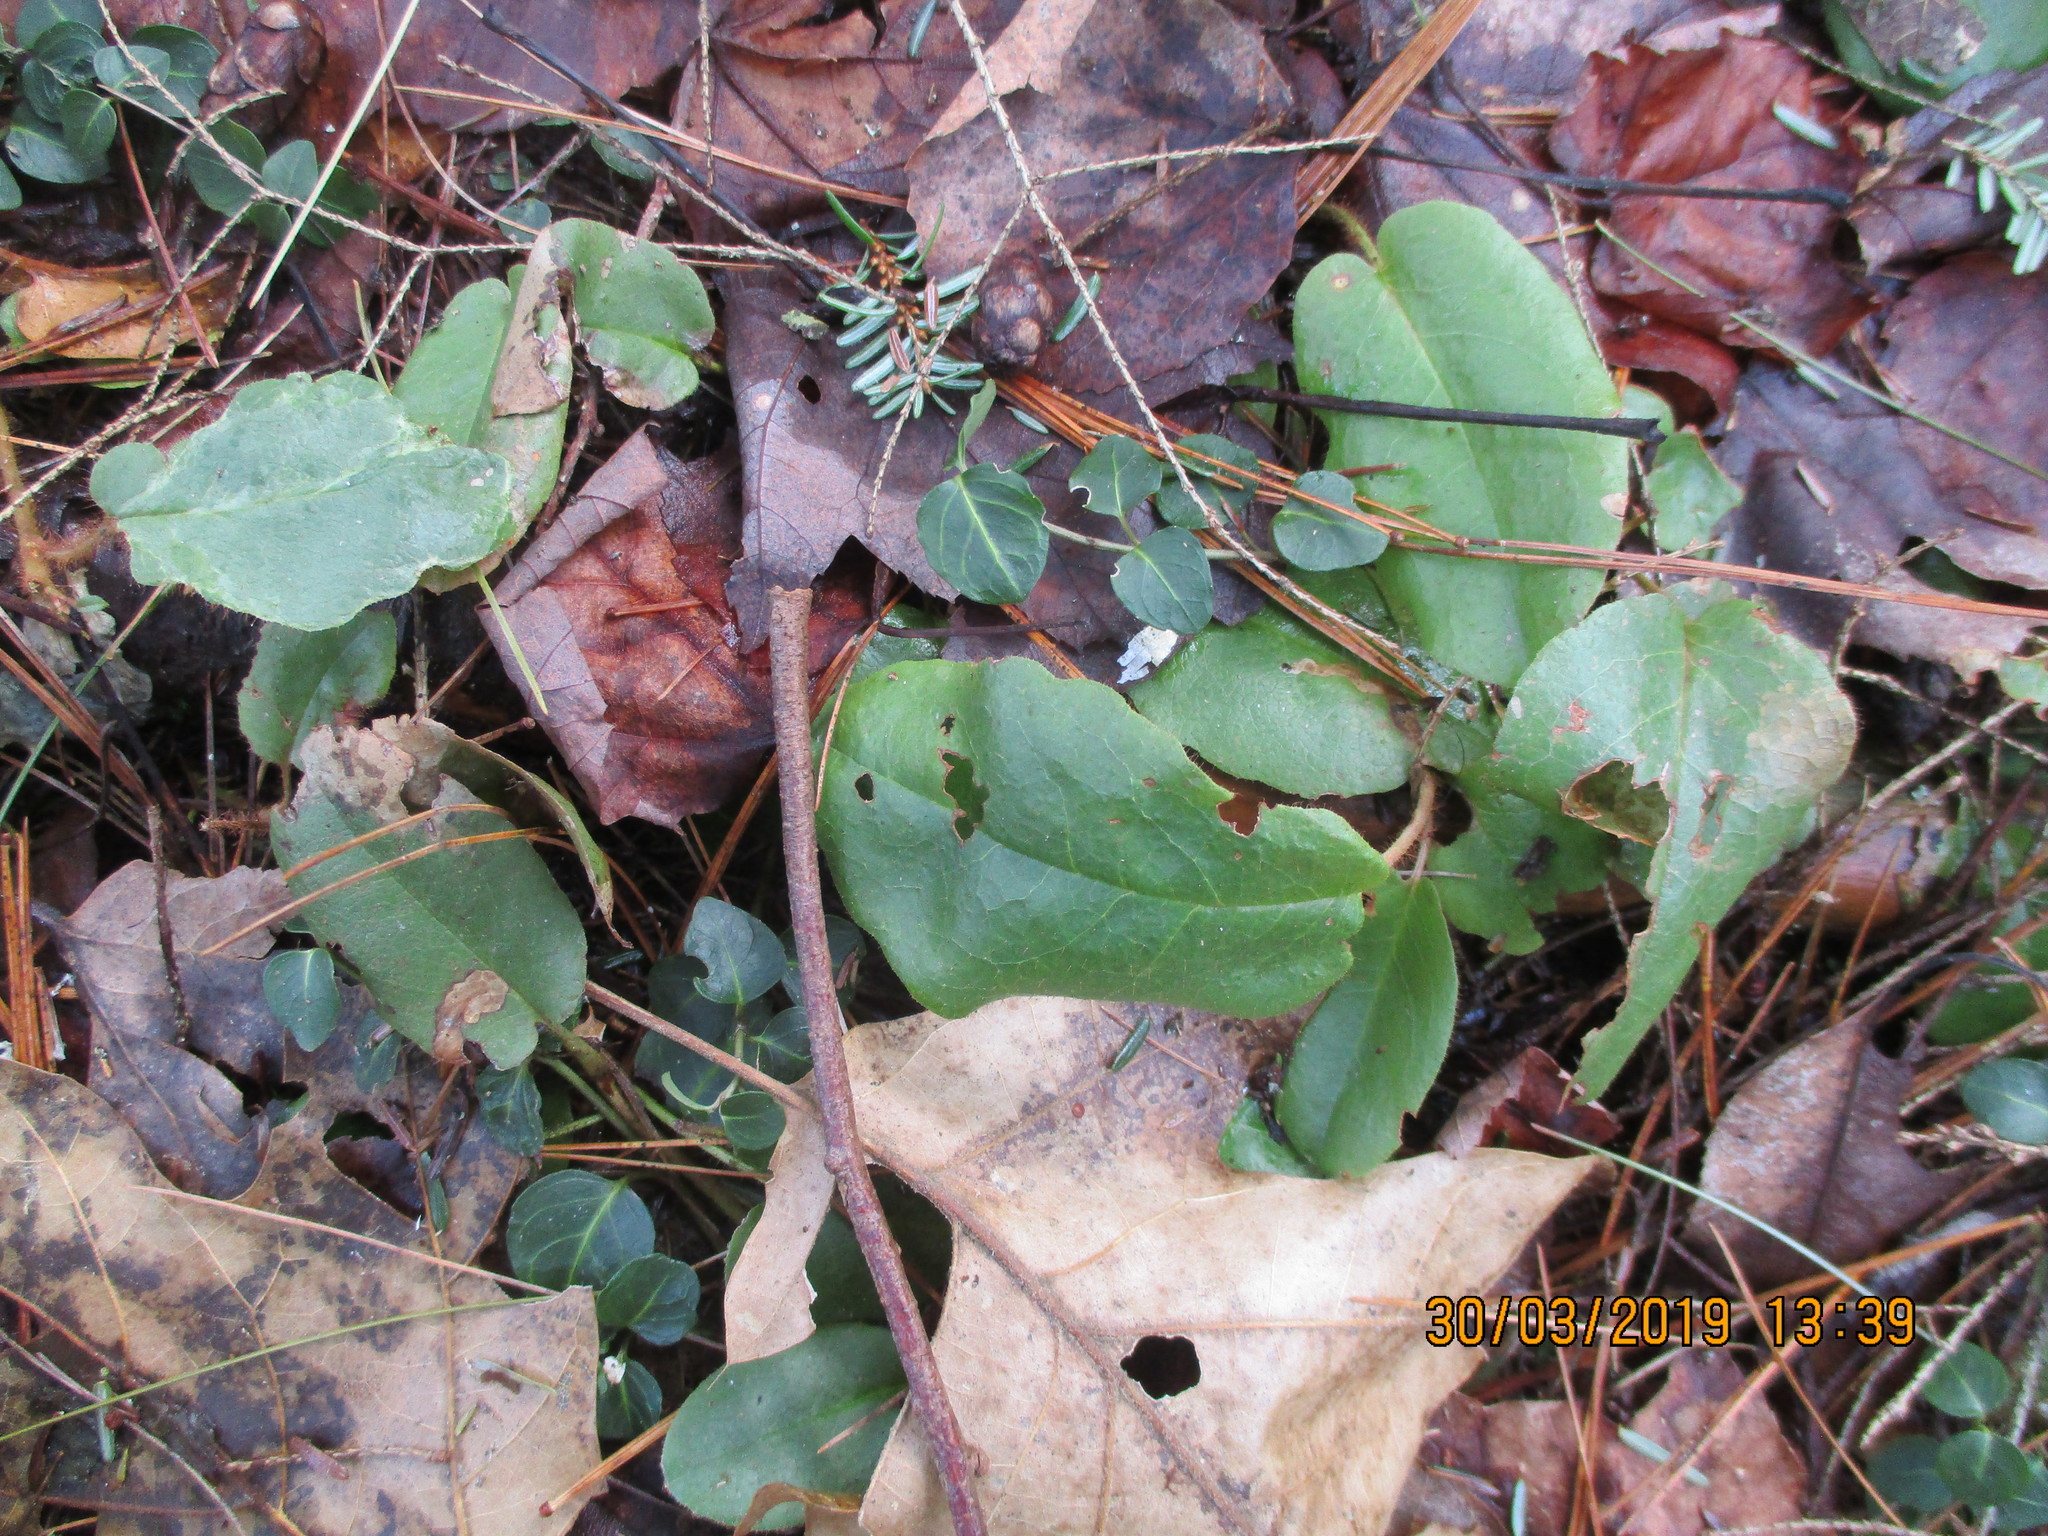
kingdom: Plantae
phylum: Tracheophyta
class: Magnoliopsida
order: Ericales
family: Ericaceae
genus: Epigaea
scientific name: Epigaea repens
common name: Gravelroot
